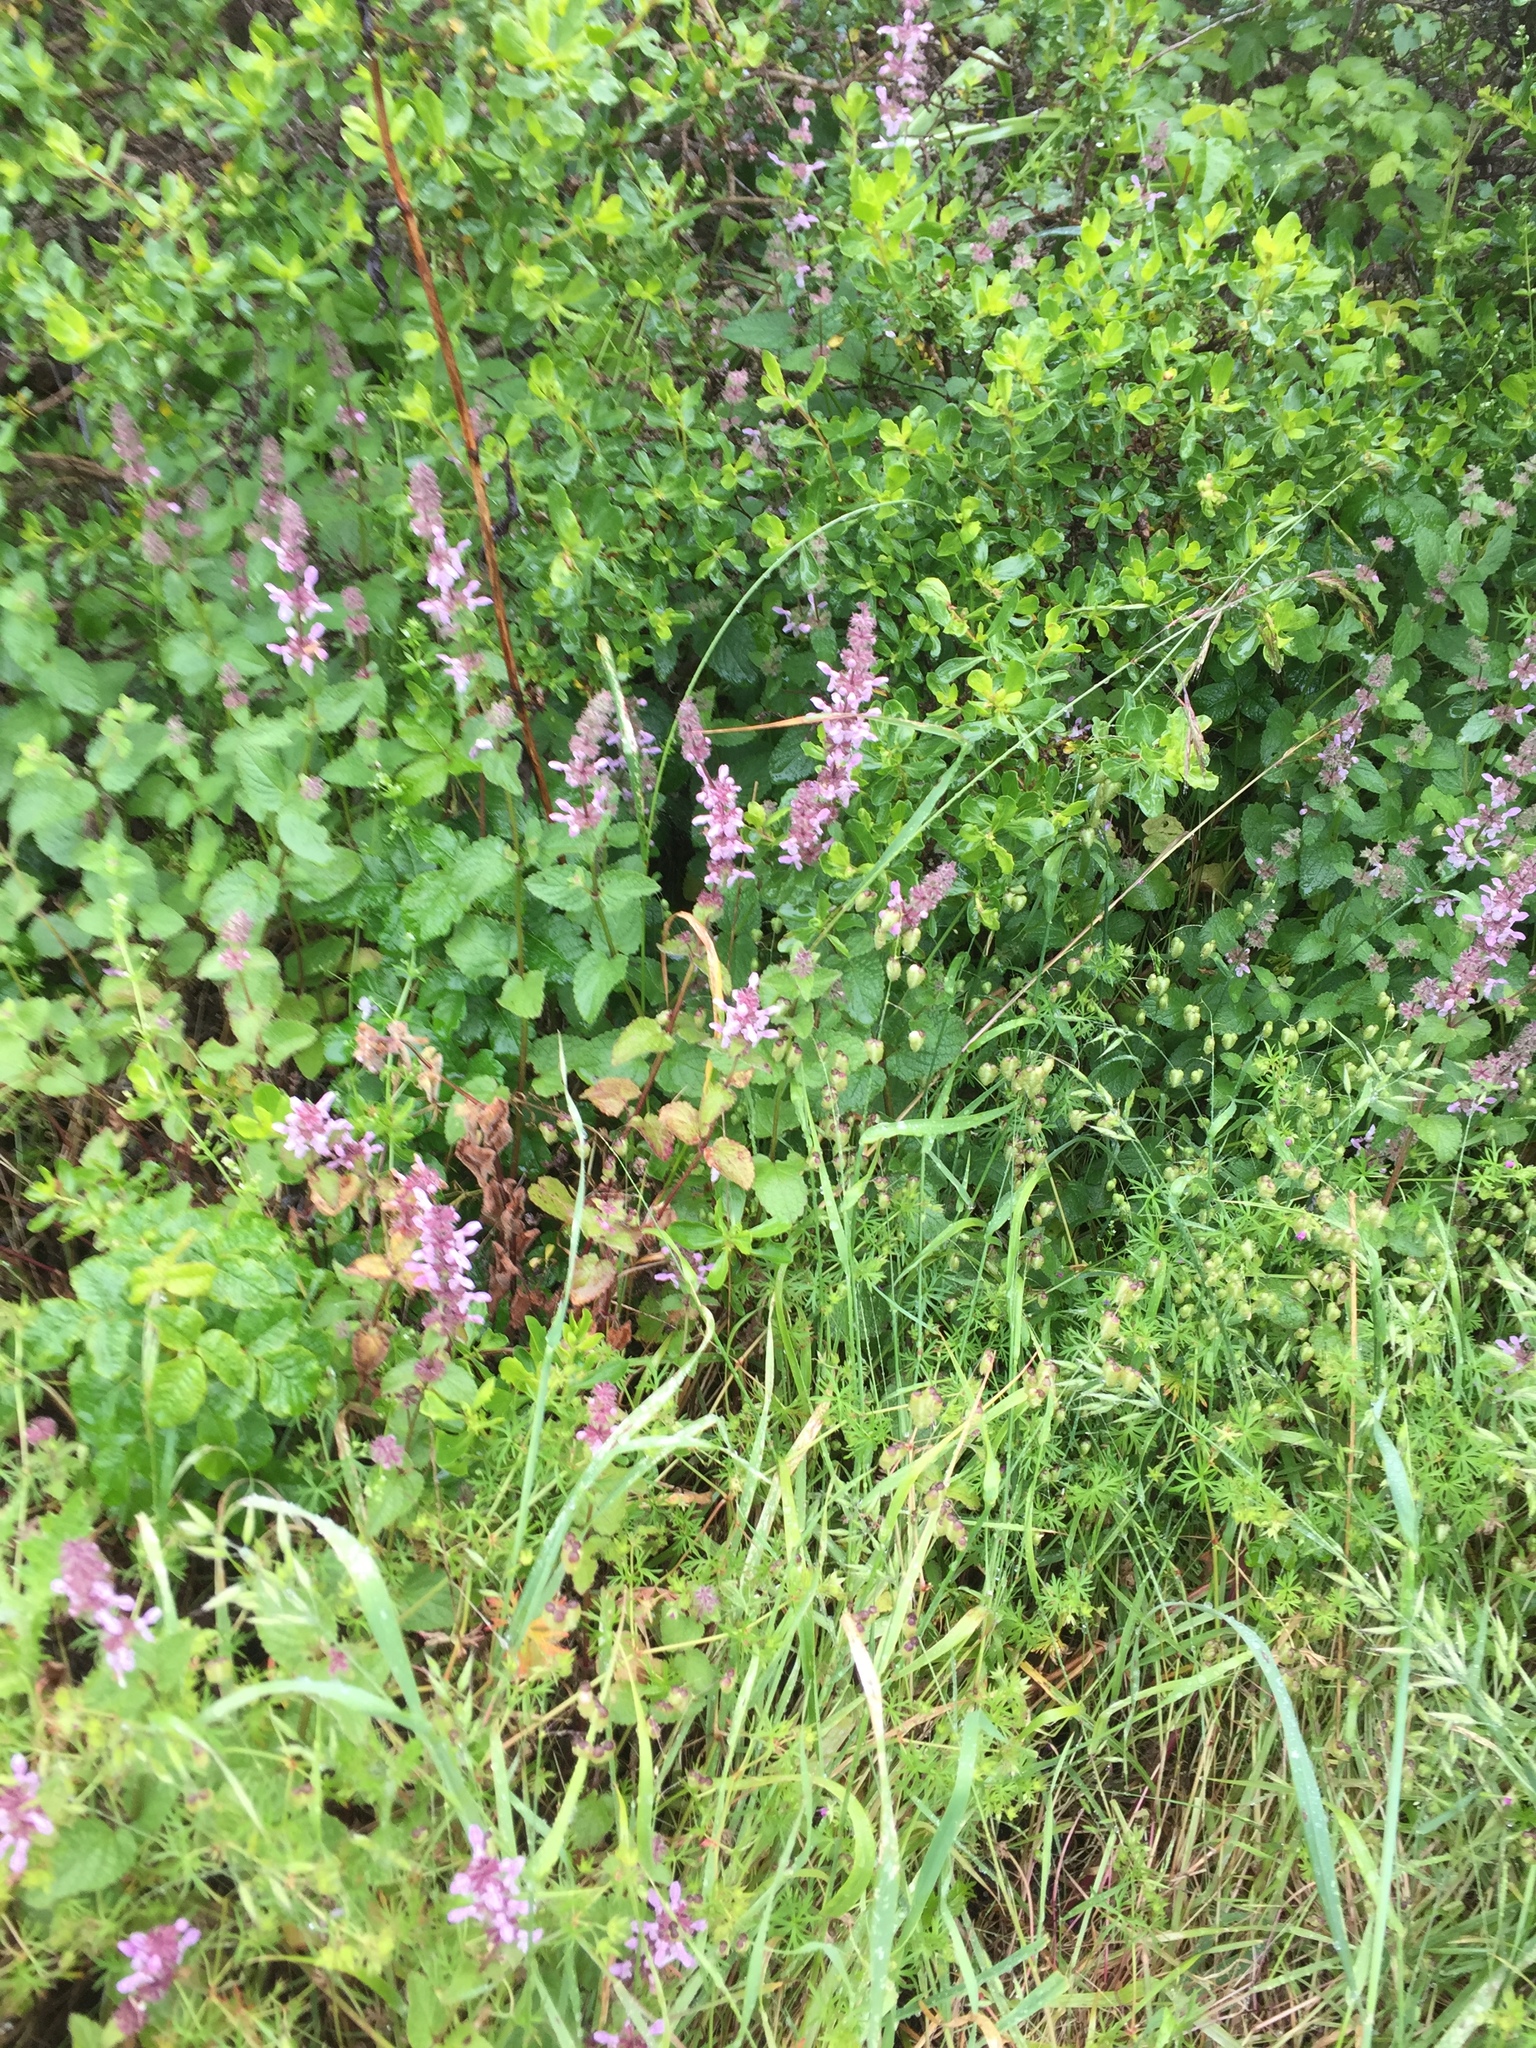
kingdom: Plantae
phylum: Tracheophyta
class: Magnoliopsida
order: Lamiales
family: Lamiaceae
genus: Stachys
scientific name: Stachys rigida
